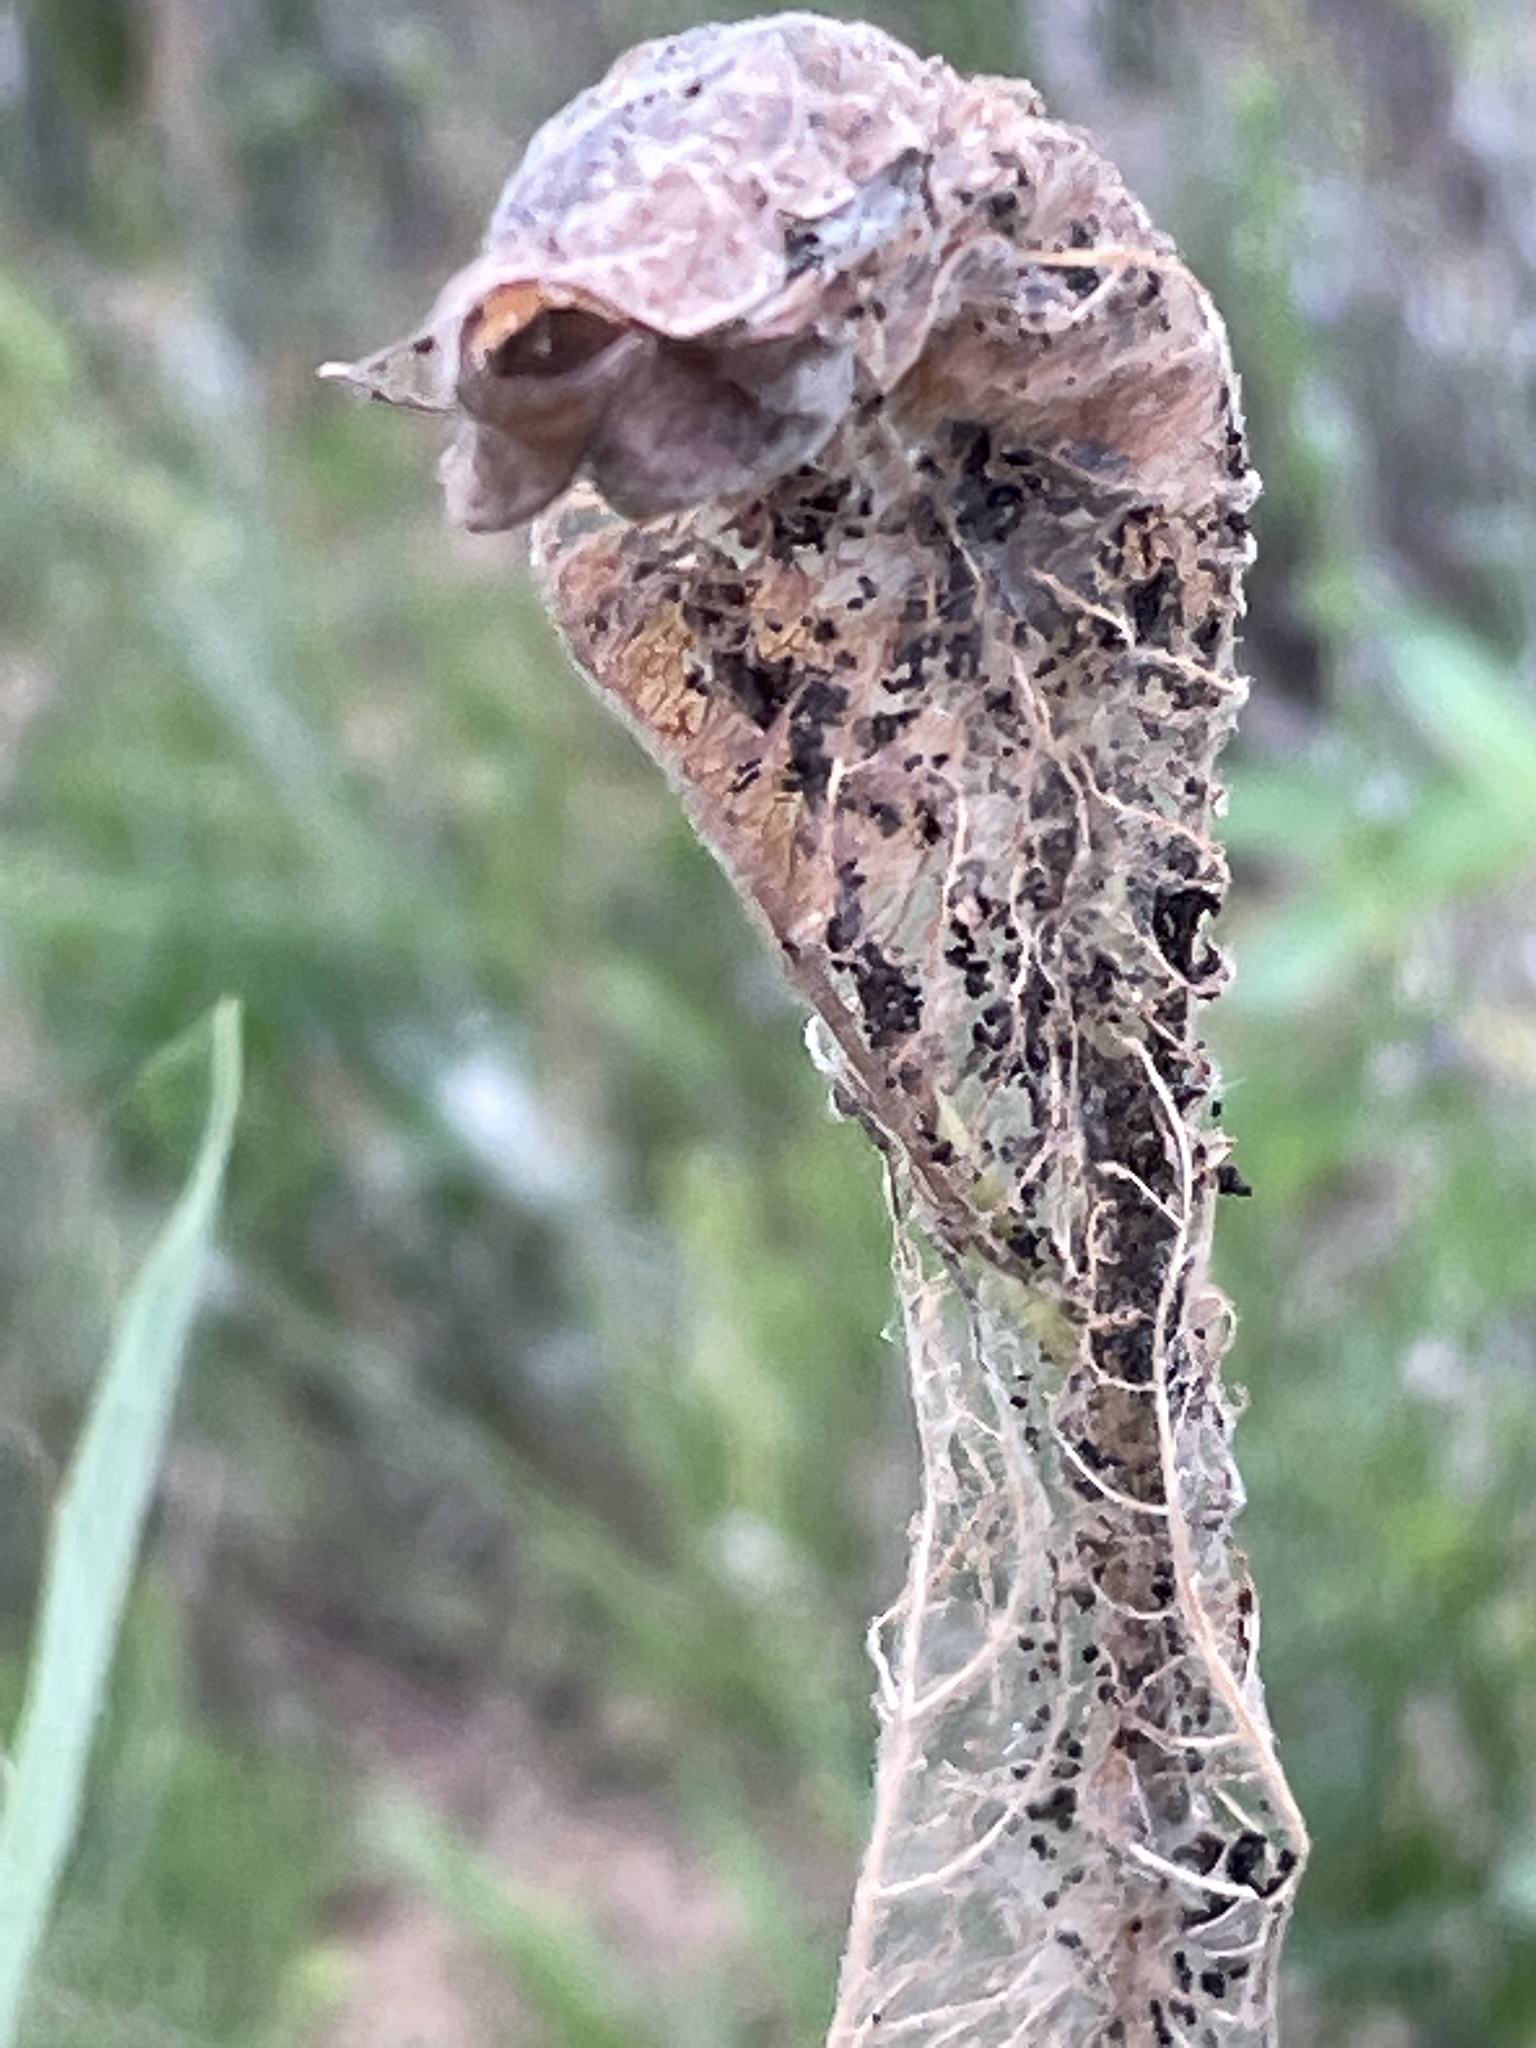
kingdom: Animalia
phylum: Arthropoda
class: Insecta
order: Lepidoptera
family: Crambidae
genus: Saucrobotys
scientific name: Saucrobotys futilalis
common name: Dogbane saucrobotys moth
